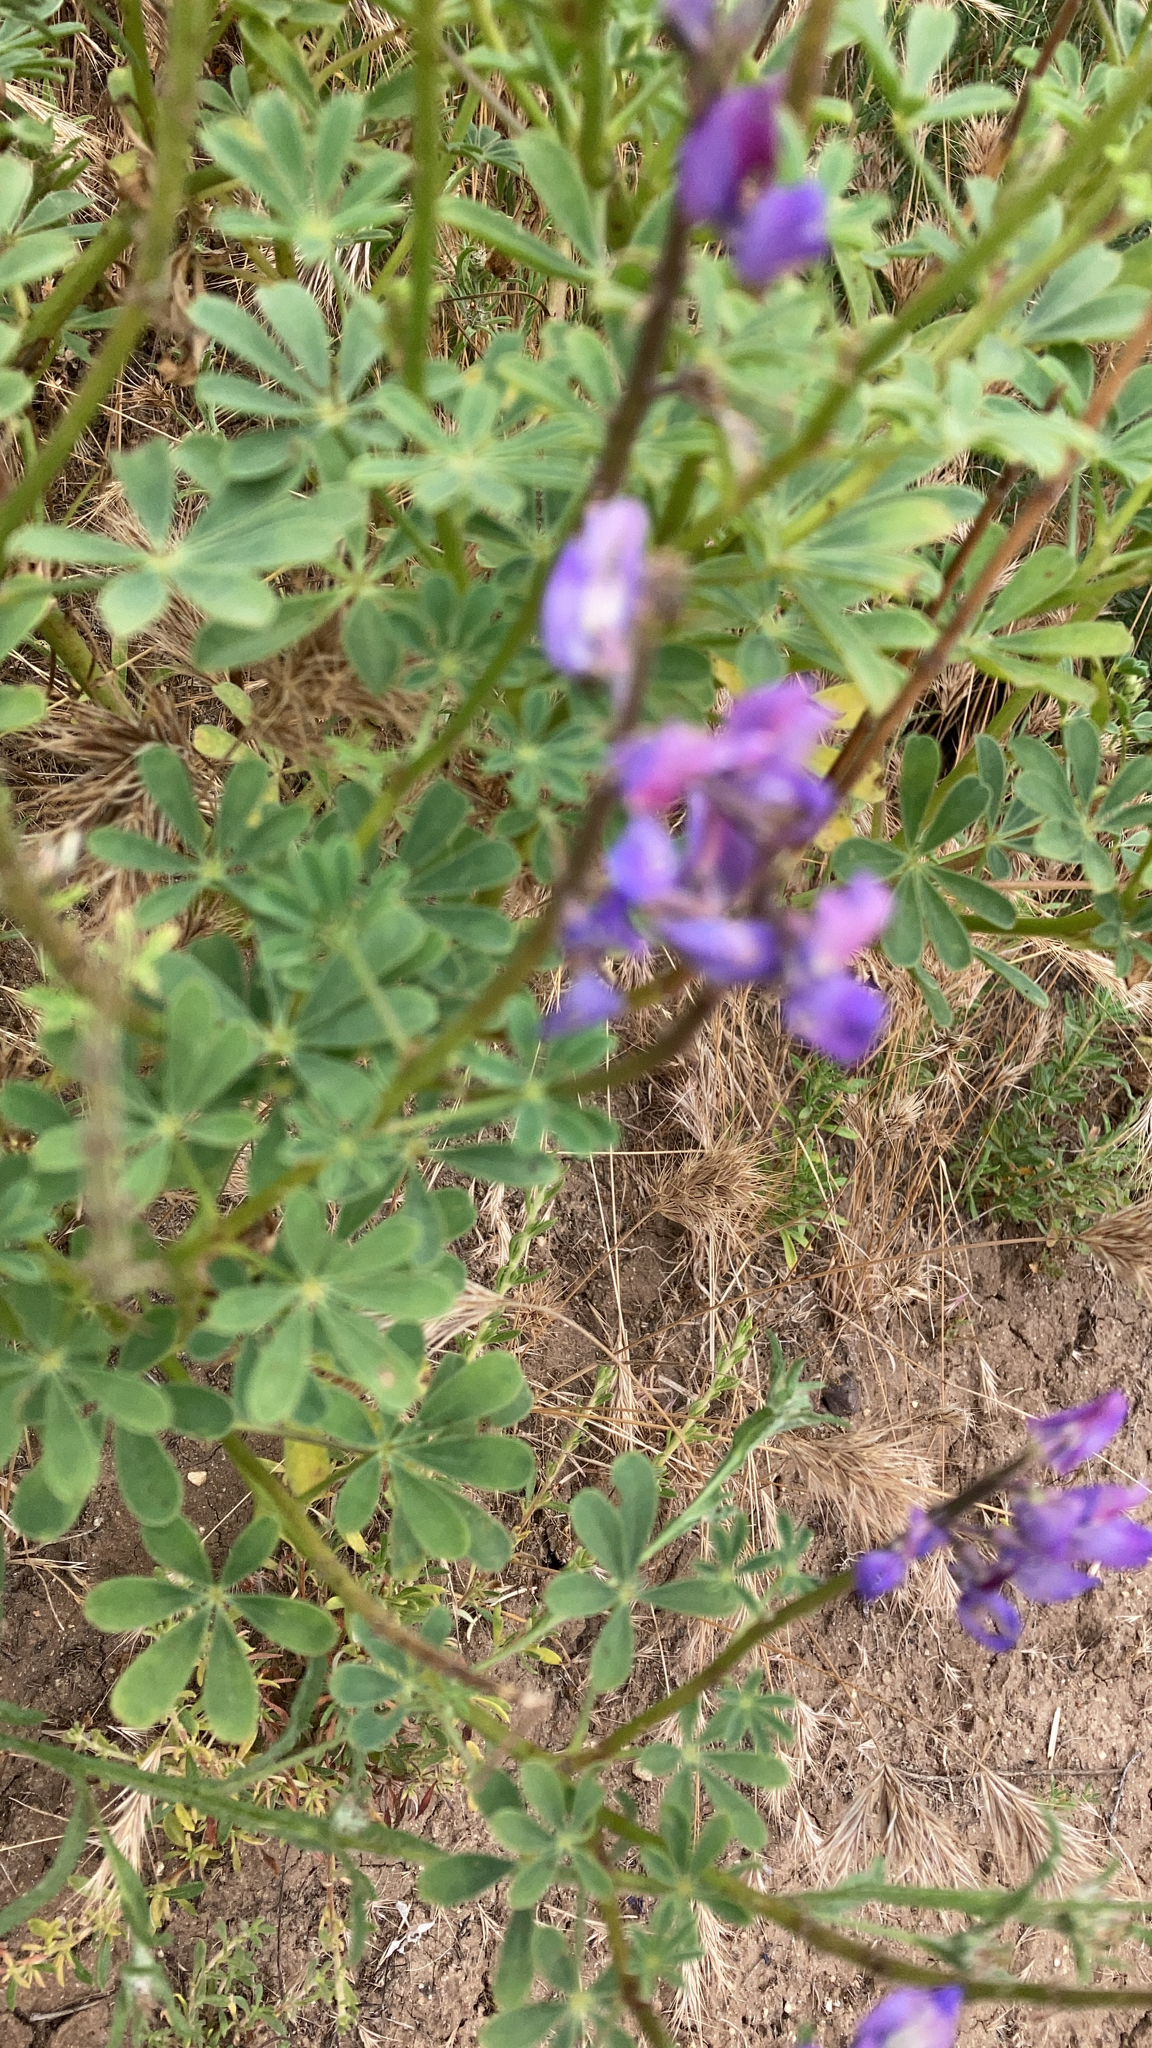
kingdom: Plantae
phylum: Tracheophyta
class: Magnoliopsida
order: Fabales
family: Fabaceae
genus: Lupinus
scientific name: Lupinus succulentus
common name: Arroyo lupine
